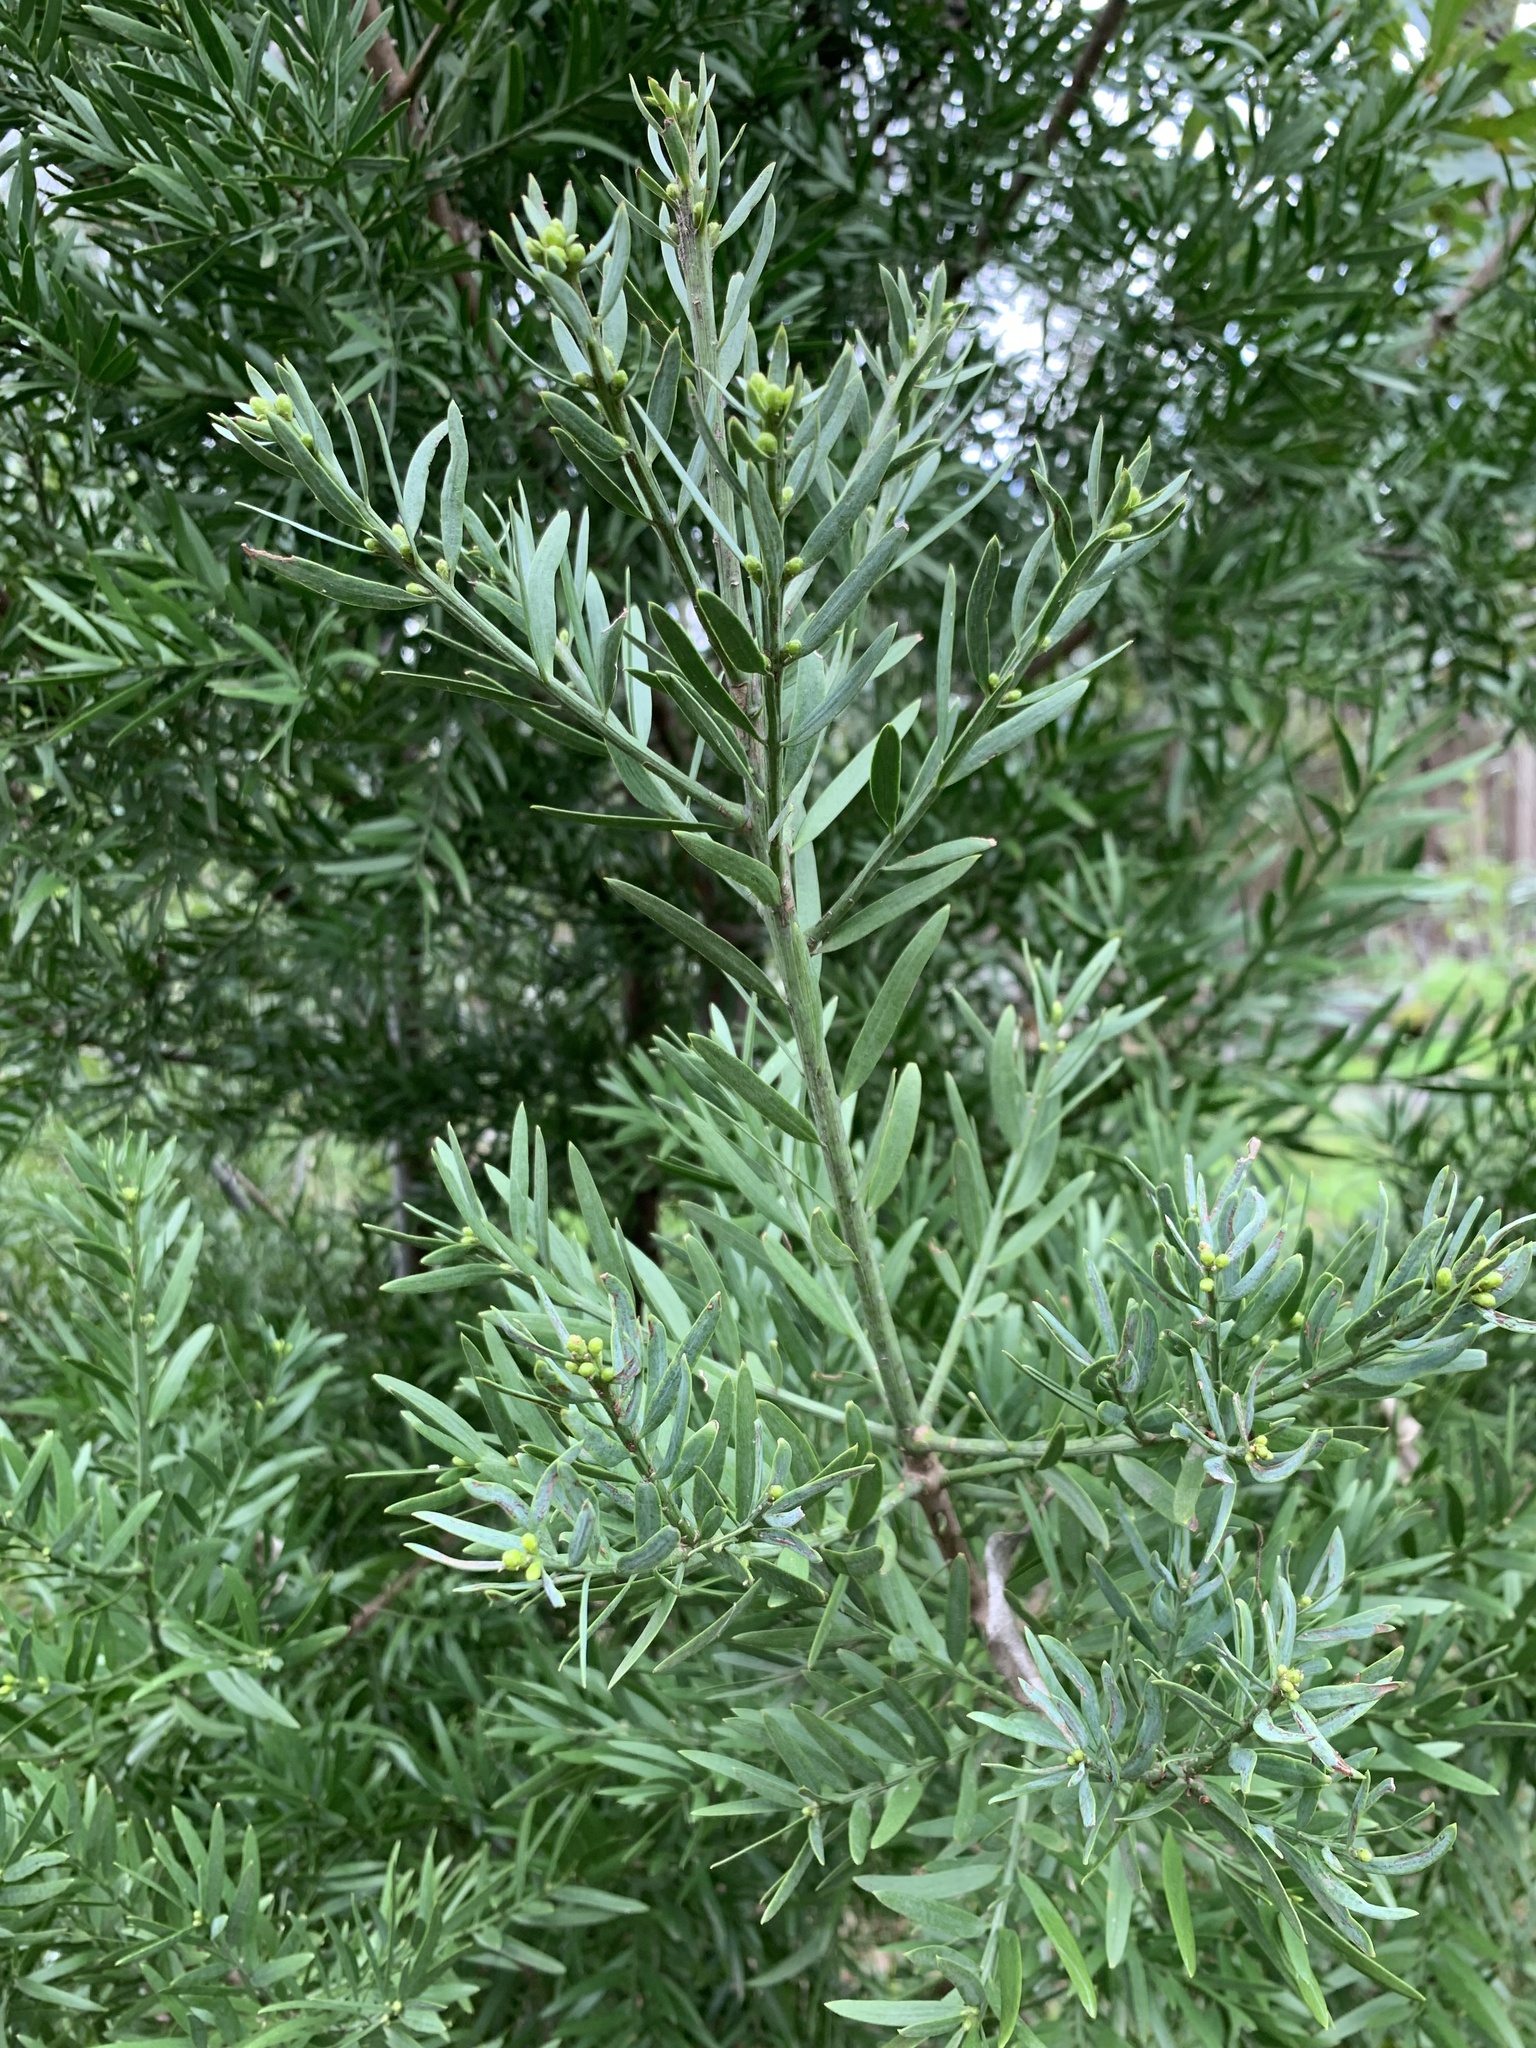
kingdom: Plantae
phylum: Tracheophyta
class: Pinopsida
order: Pinales
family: Podocarpaceae
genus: Afrocarpus
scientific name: Afrocarpus falcatus
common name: Bastard yellowwood
